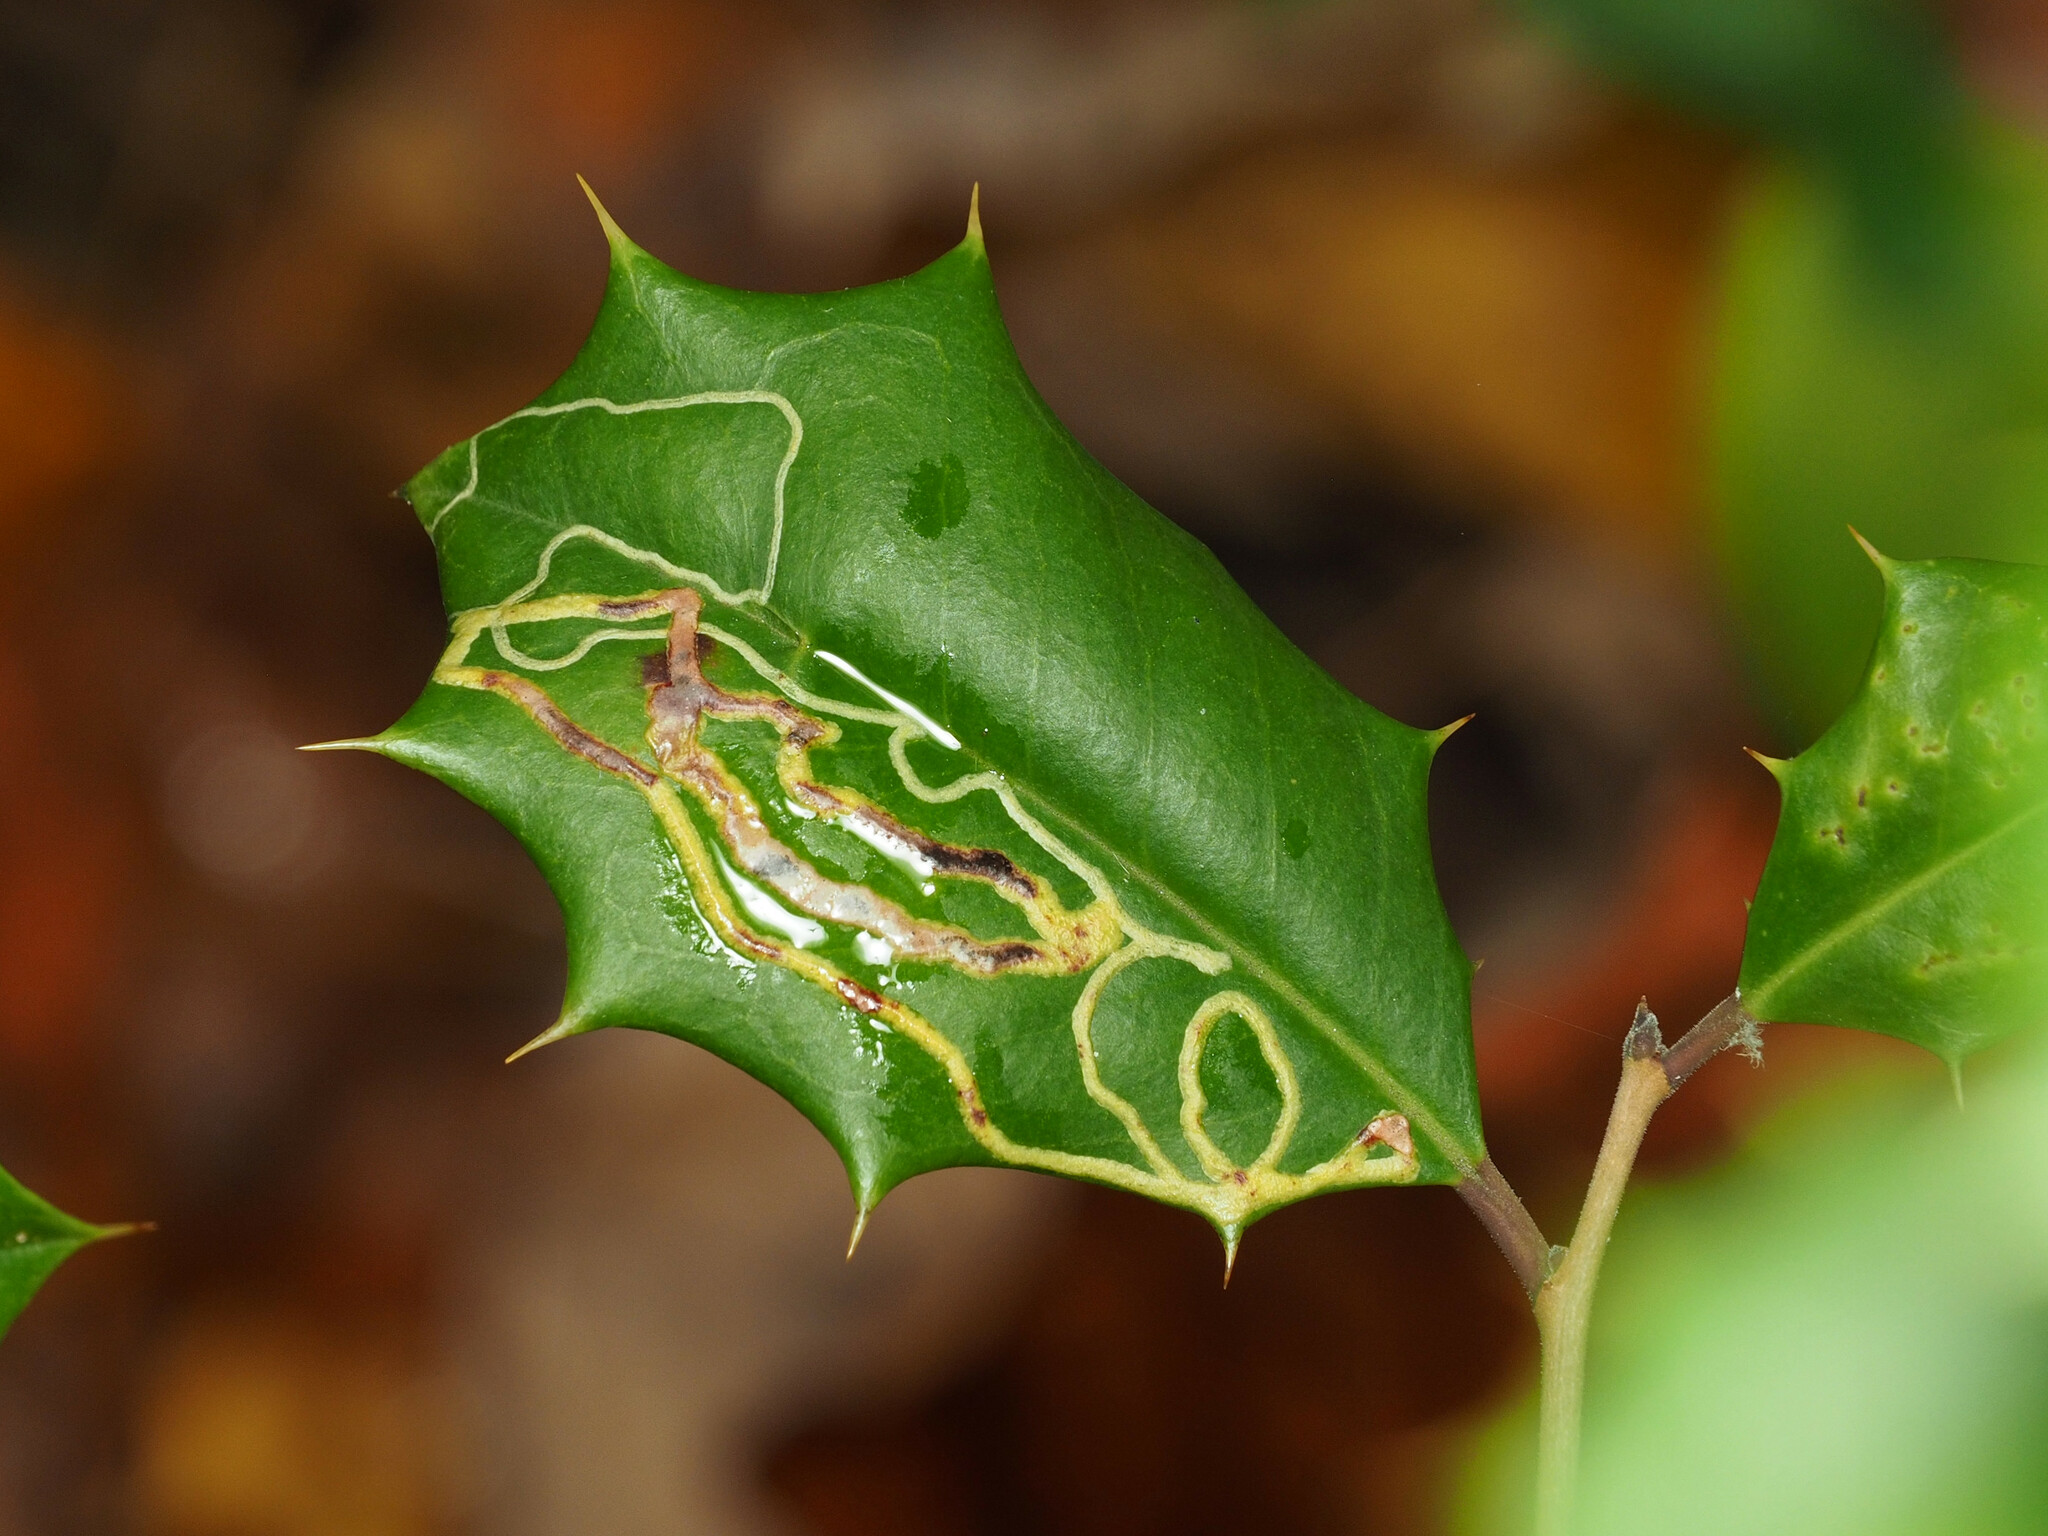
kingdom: Animalia
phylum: Arthropoda
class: Insecta
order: Diptera
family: Agromyzidae
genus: Phytomyza
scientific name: Phytomyza opacae
